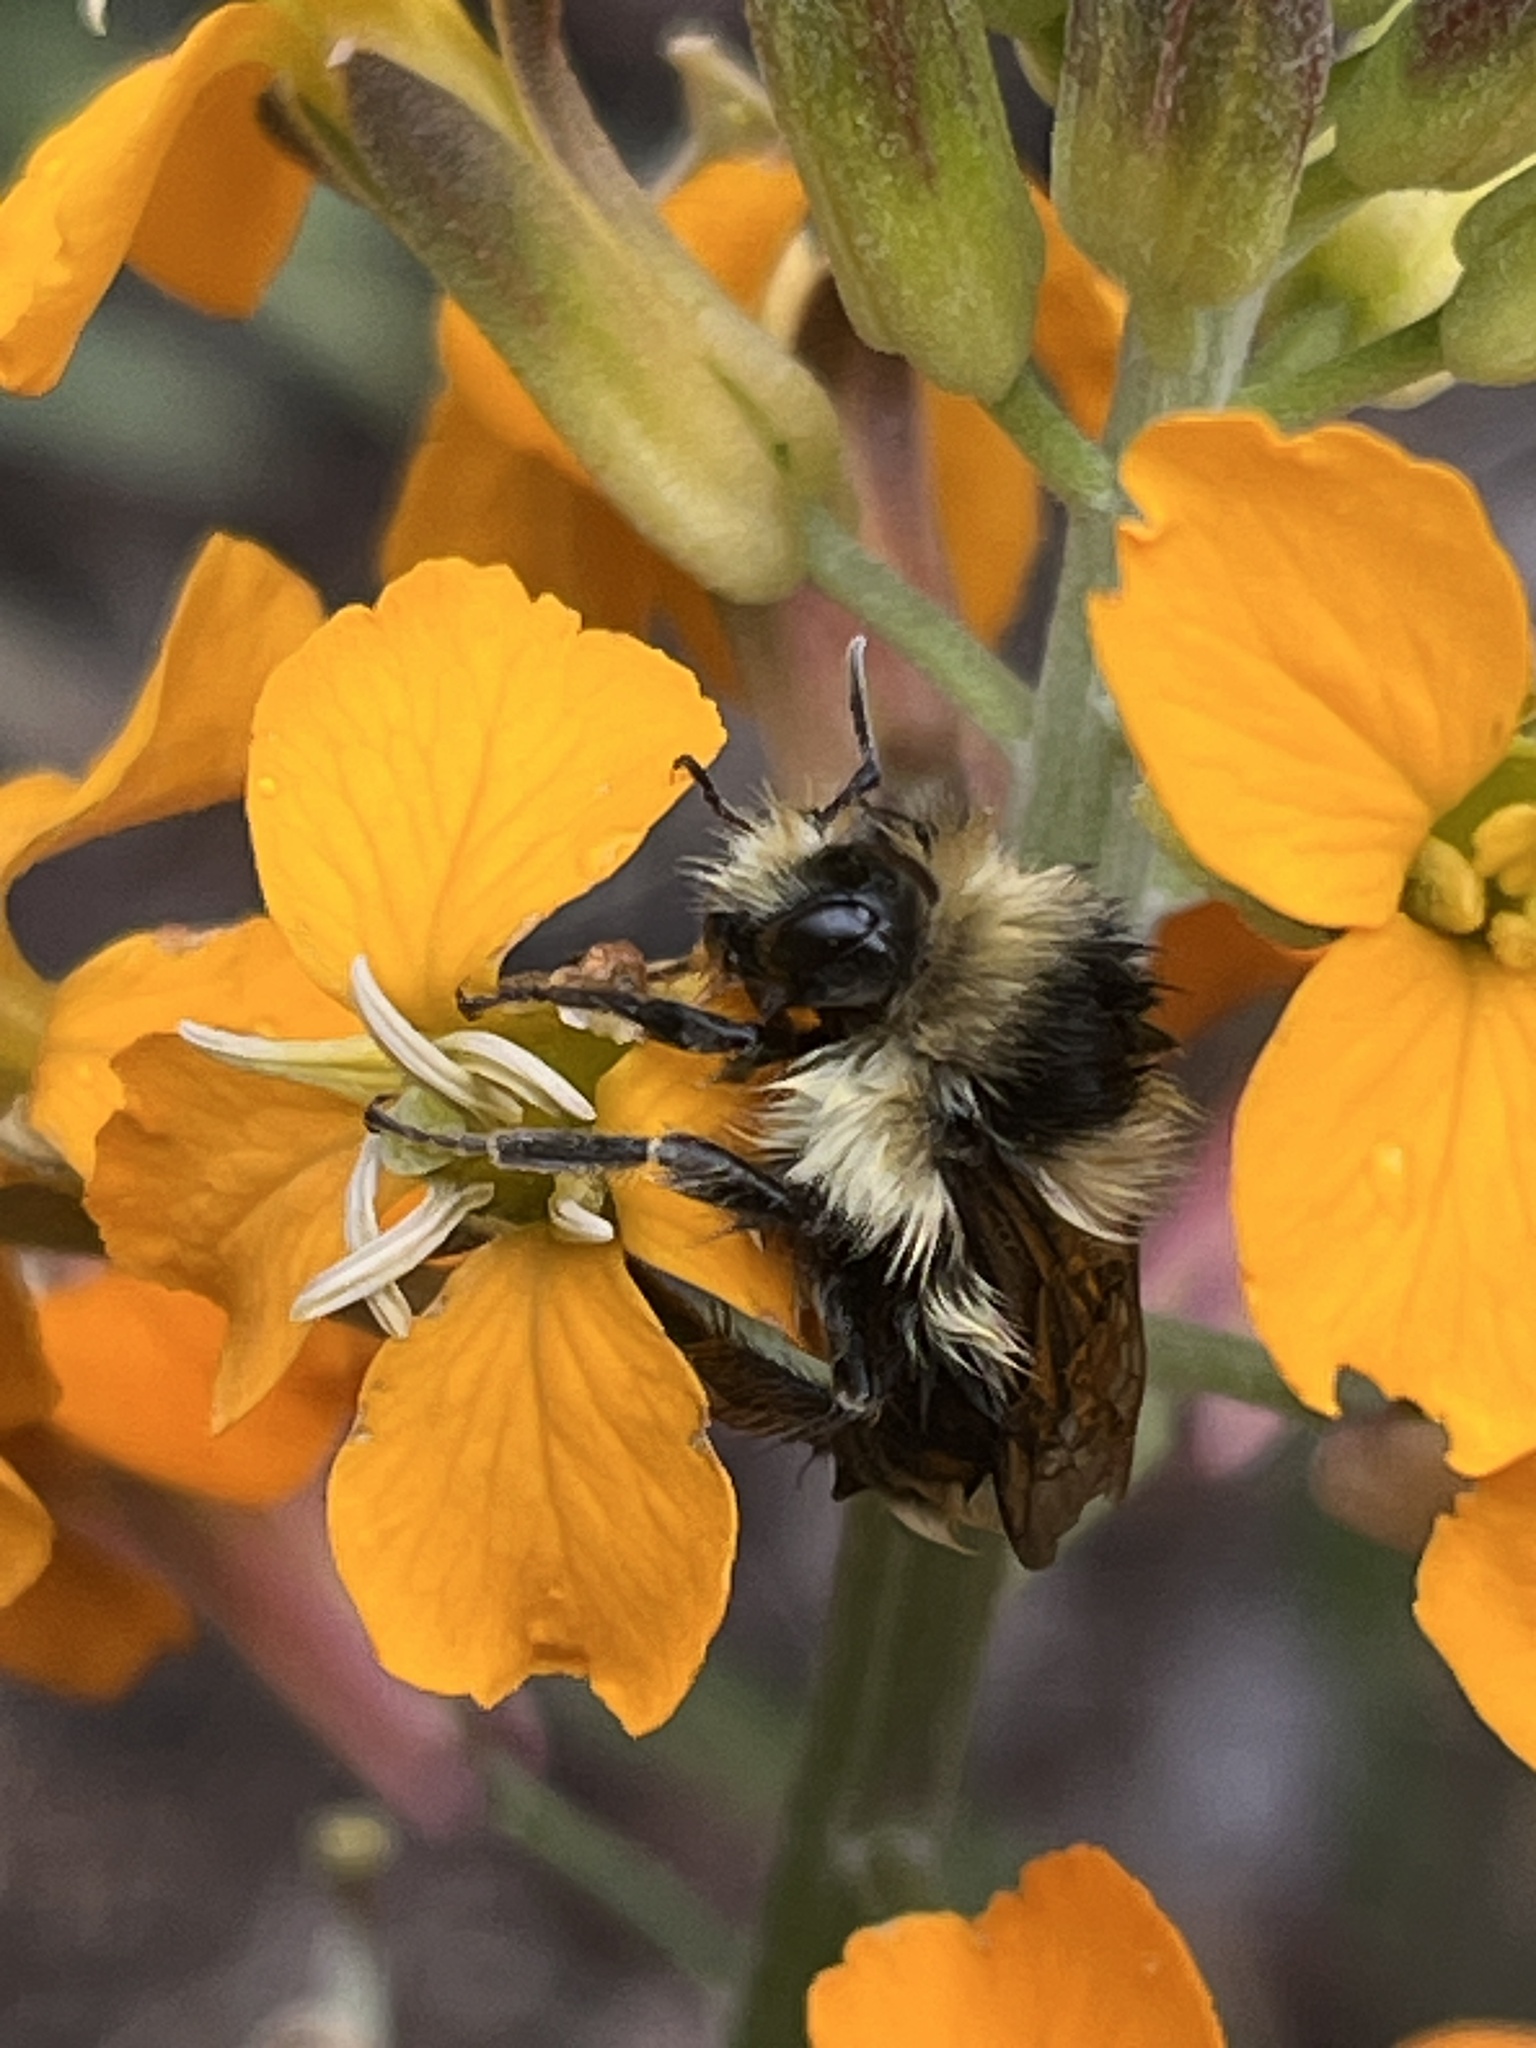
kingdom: Animalia
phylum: Arthropoda
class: Insecta
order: Hymenoptera
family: Apidae
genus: Bombus
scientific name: Bombus melanopygus
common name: Black tail bumble bee
